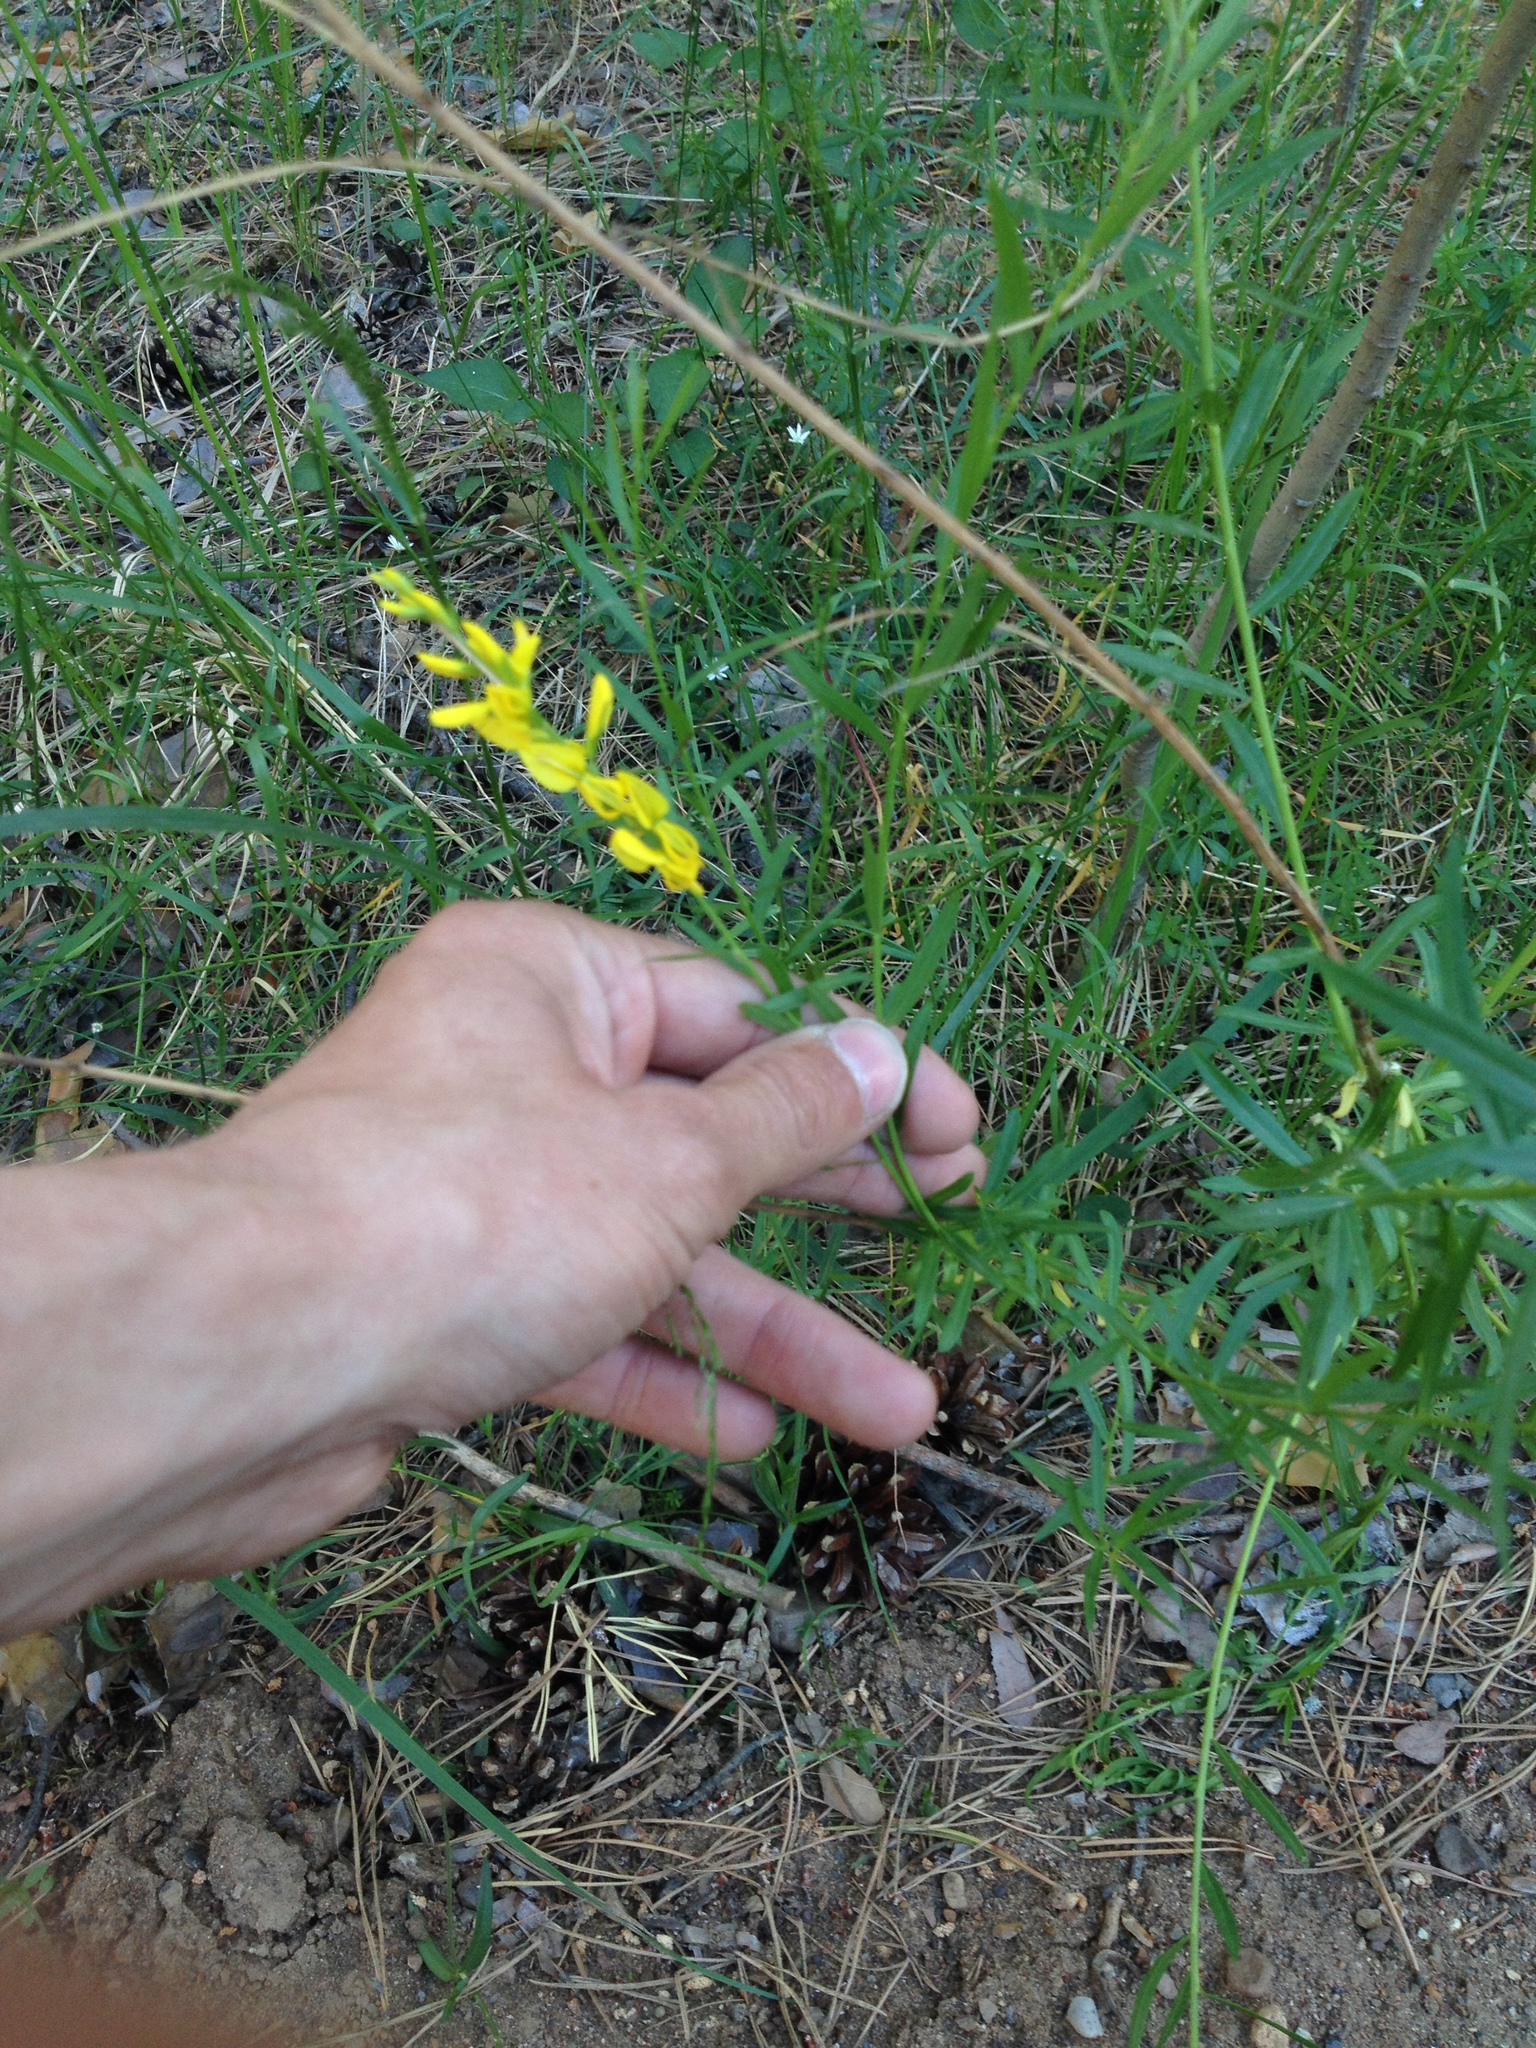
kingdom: Plantae
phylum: Tracheophyta
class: Magnoliopsida
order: Fabales
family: Fabaceae
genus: Genista
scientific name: Genista tinctoria
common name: Dyer's greenweed
